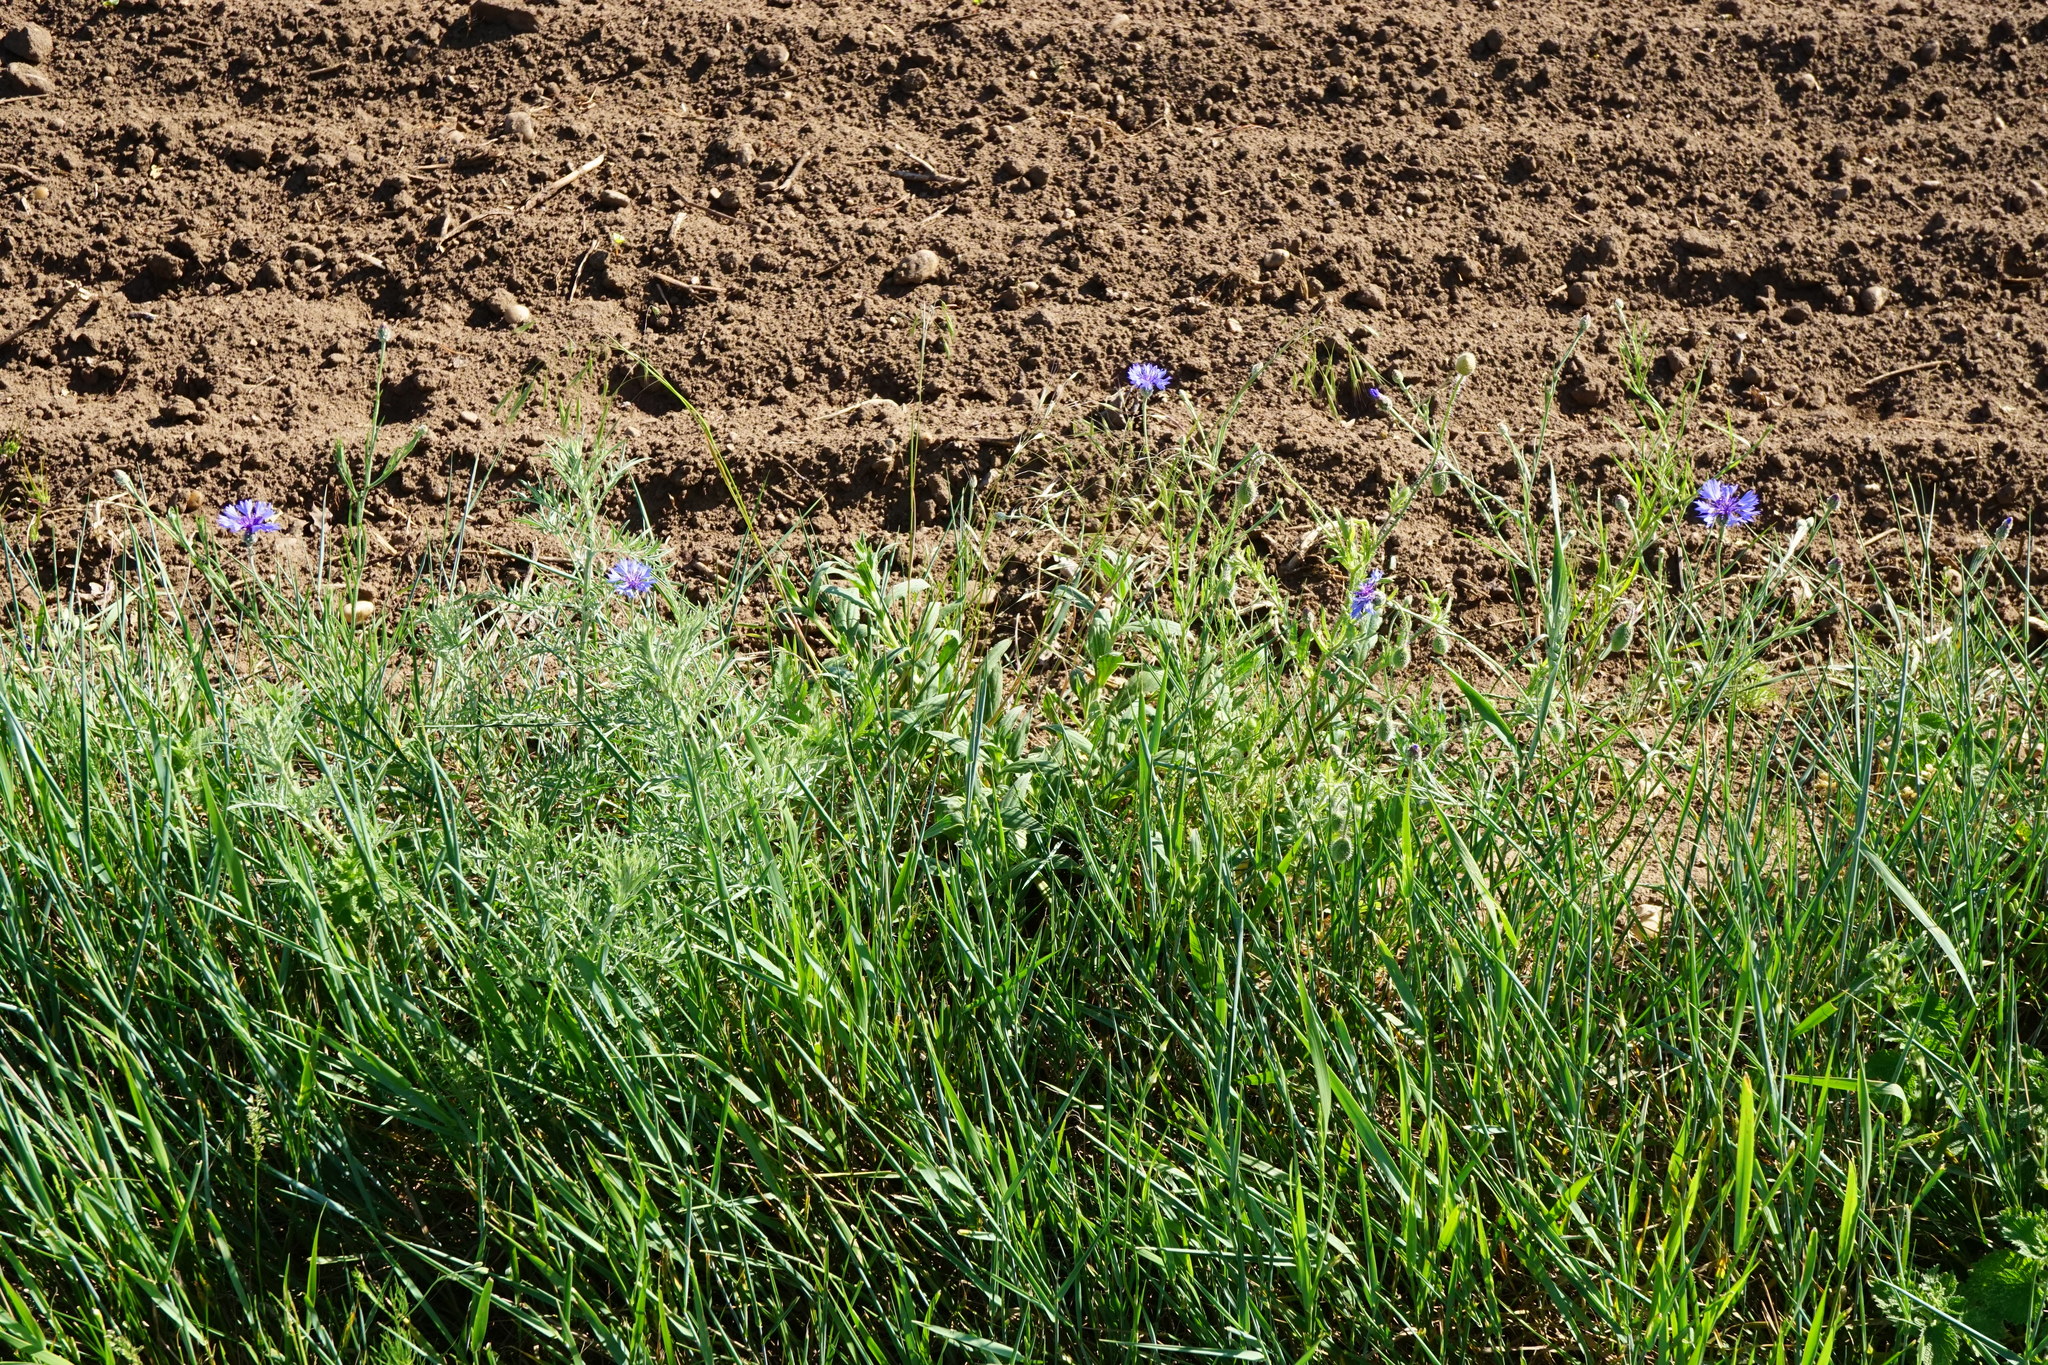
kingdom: Plantae
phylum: Tracheophyta
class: Magnoliopsida
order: Asterales
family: Asteraceae
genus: Centaurea
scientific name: Centaurea cyanus
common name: Cornflower
